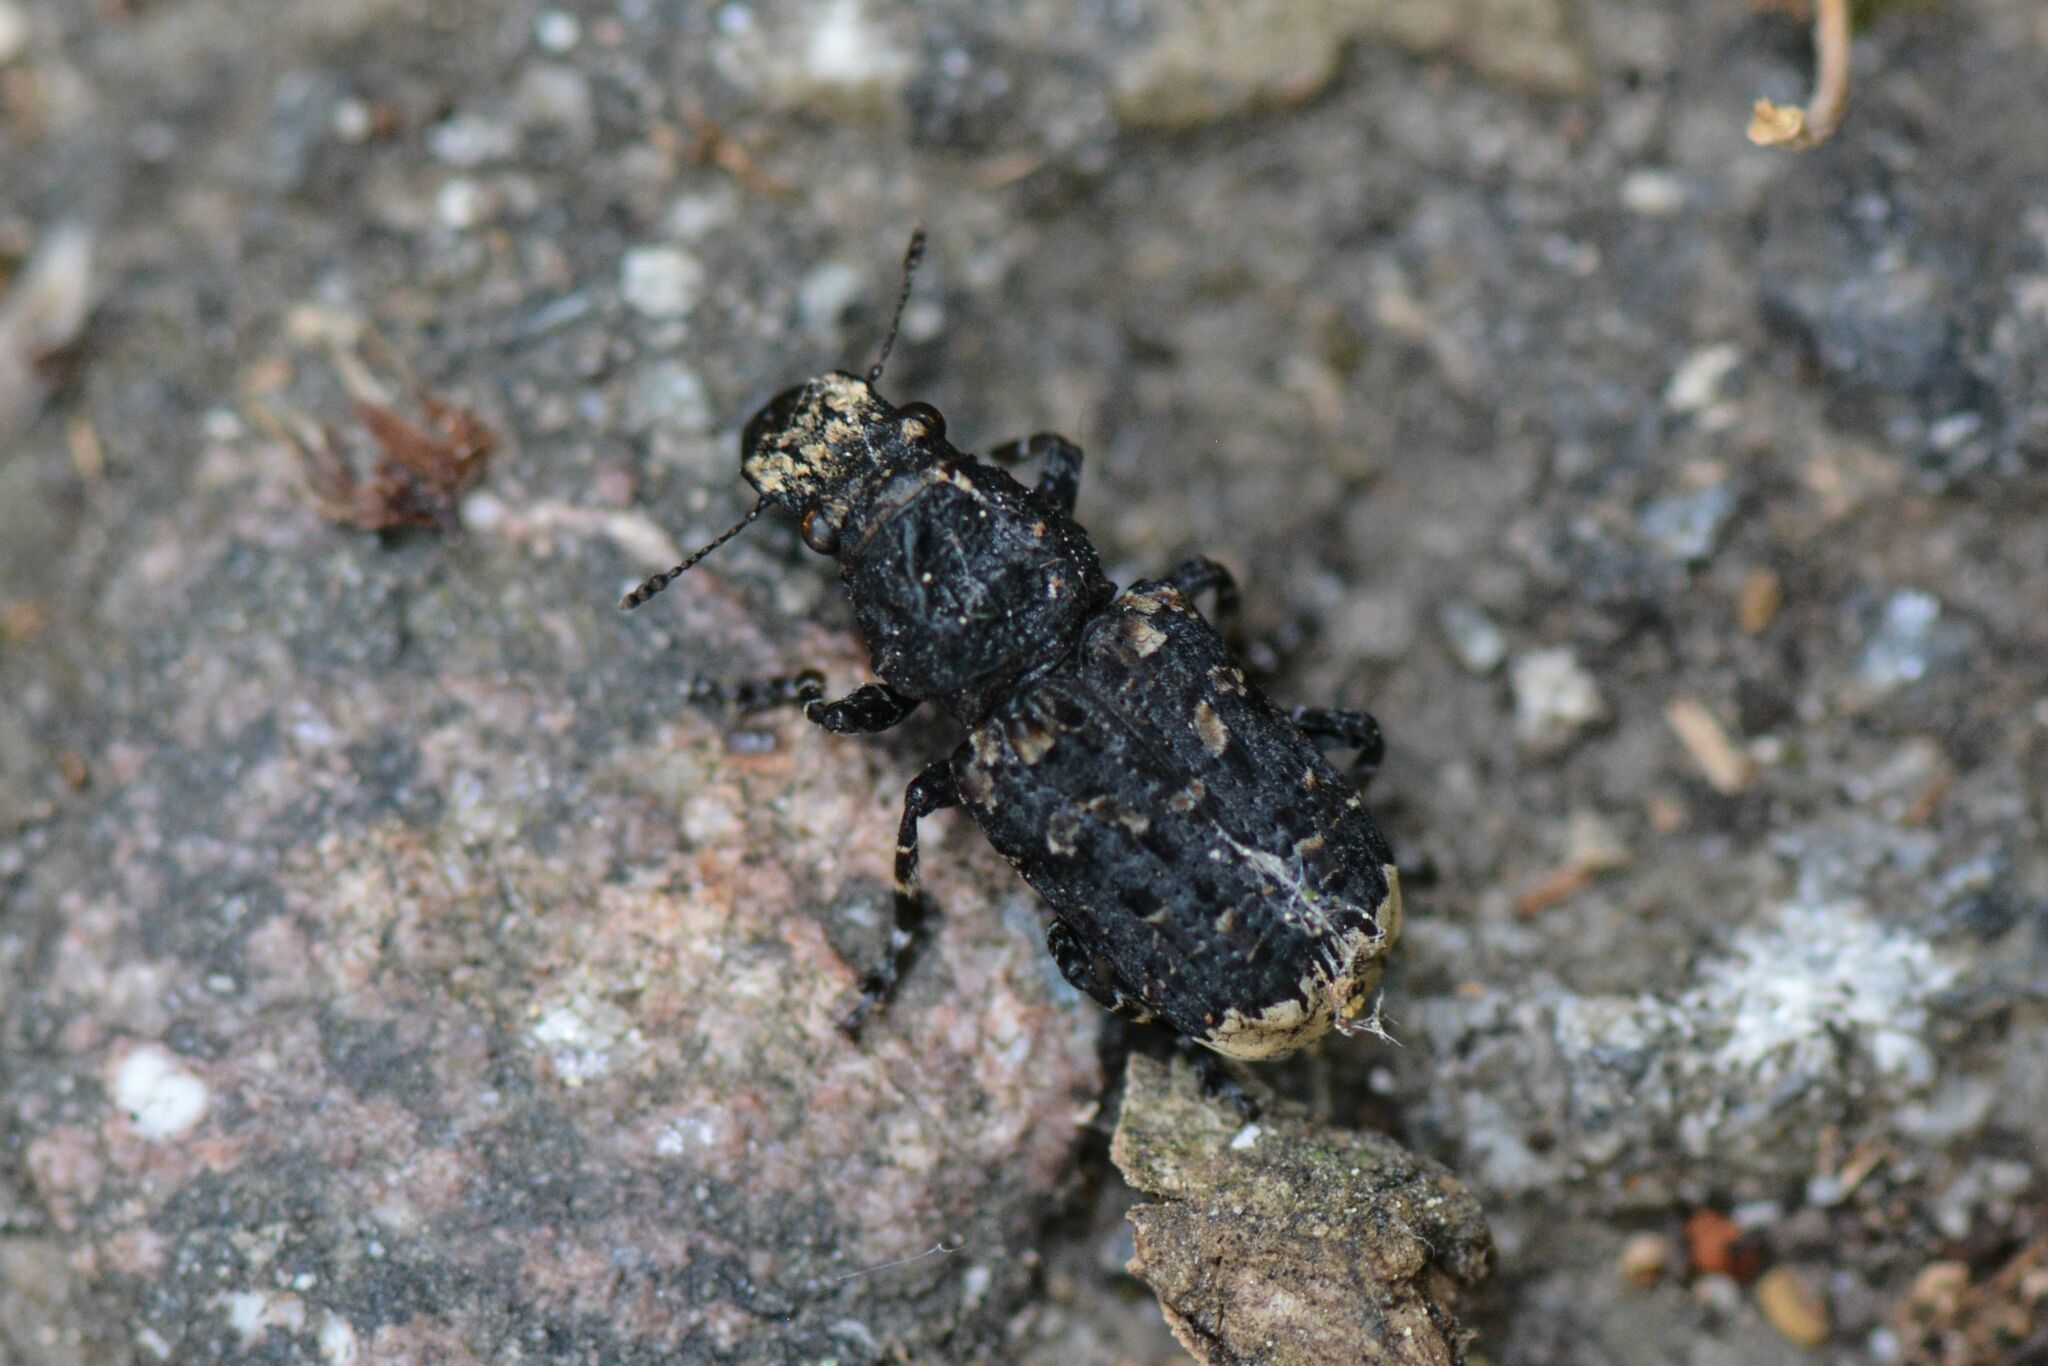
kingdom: Animalia
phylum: Arthropoda
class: Insecta
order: Coleoptera
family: Anthribidae
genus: Platyrhinus
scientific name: Platyrhinus resinosus
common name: Cramp-ball fungus weevil
